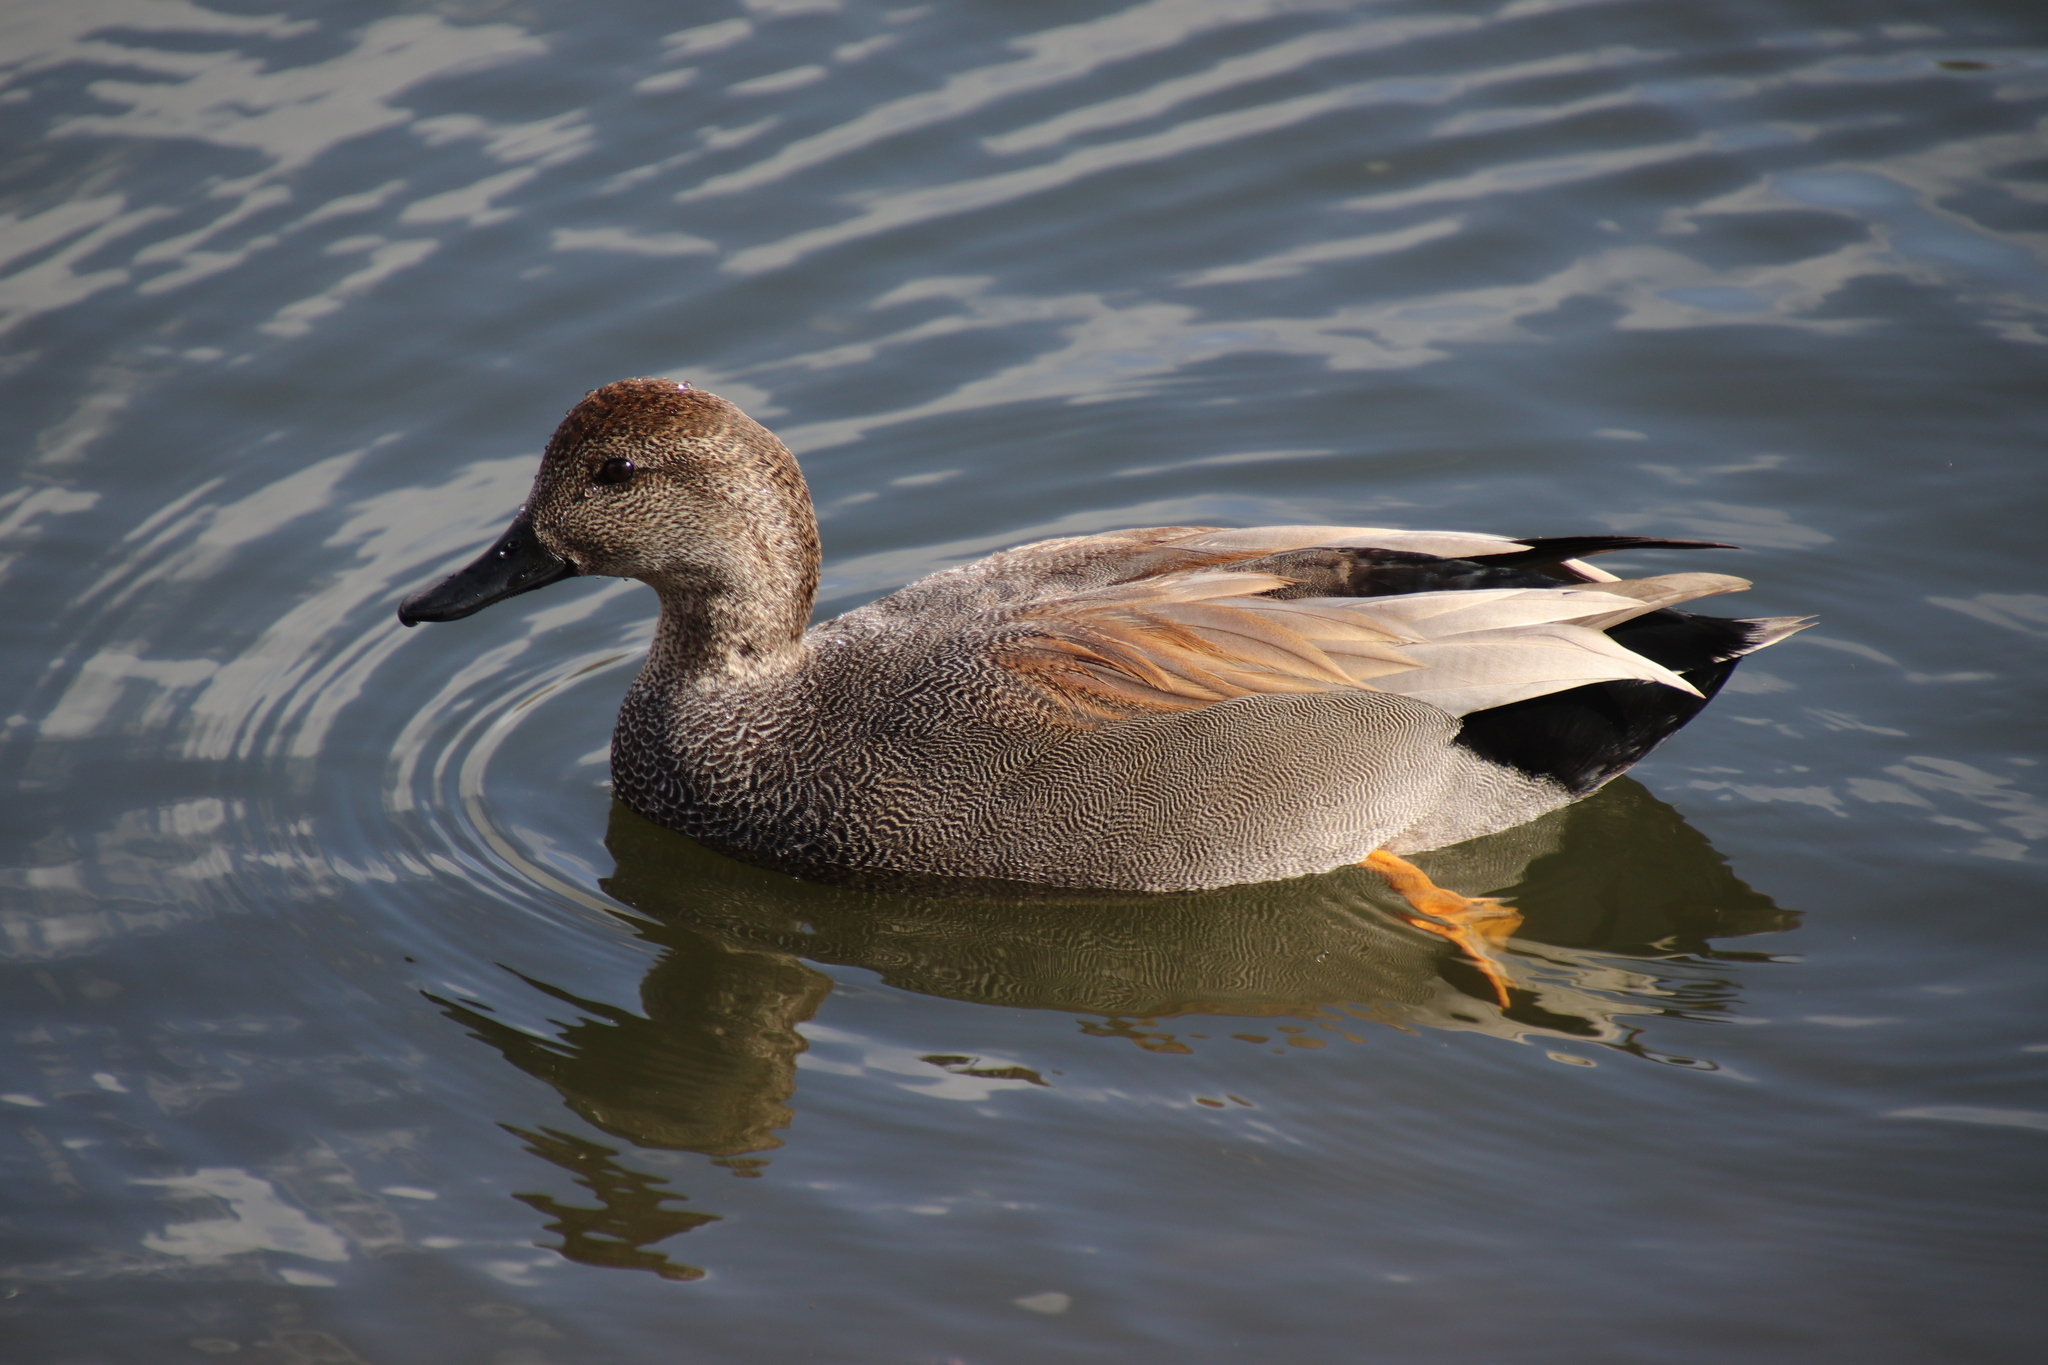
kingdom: Animalia
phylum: Chordata
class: Aves
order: Anseriformes
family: Anatidae
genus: Mareca
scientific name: Mareca strepera
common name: Gadwall
